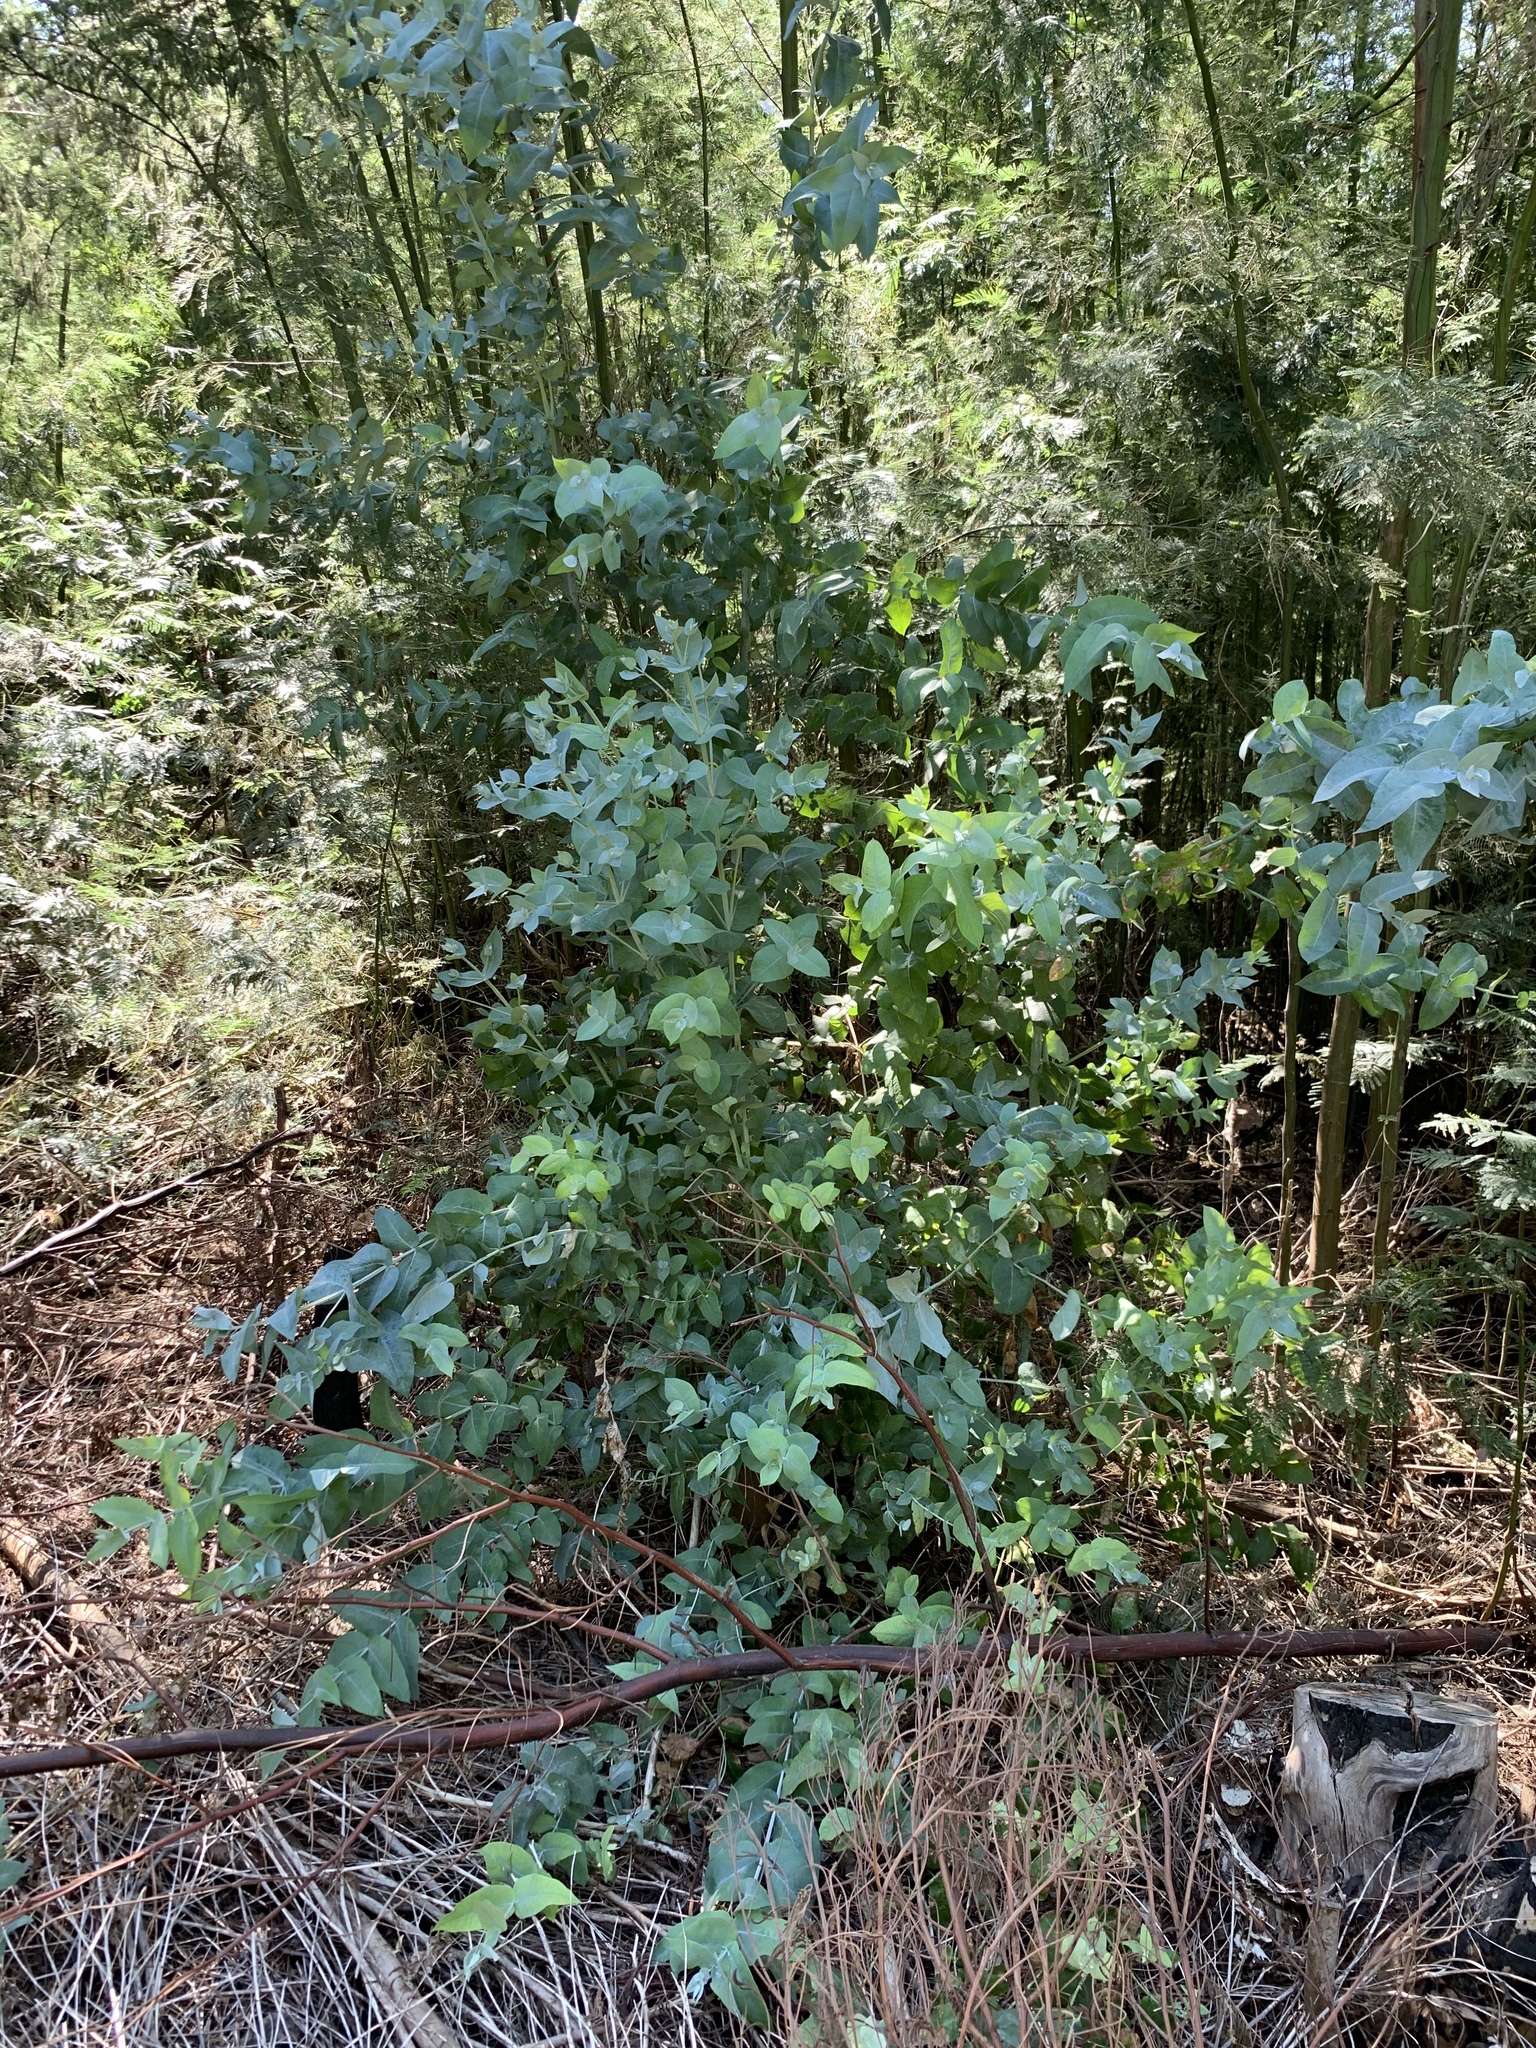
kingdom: Plantae
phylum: Tracheophyta
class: Magnoliopsida
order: Myrtales
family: Myrtaceae
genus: Eucalyptus
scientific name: Eucalyptus cinerea
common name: Argyle apple
